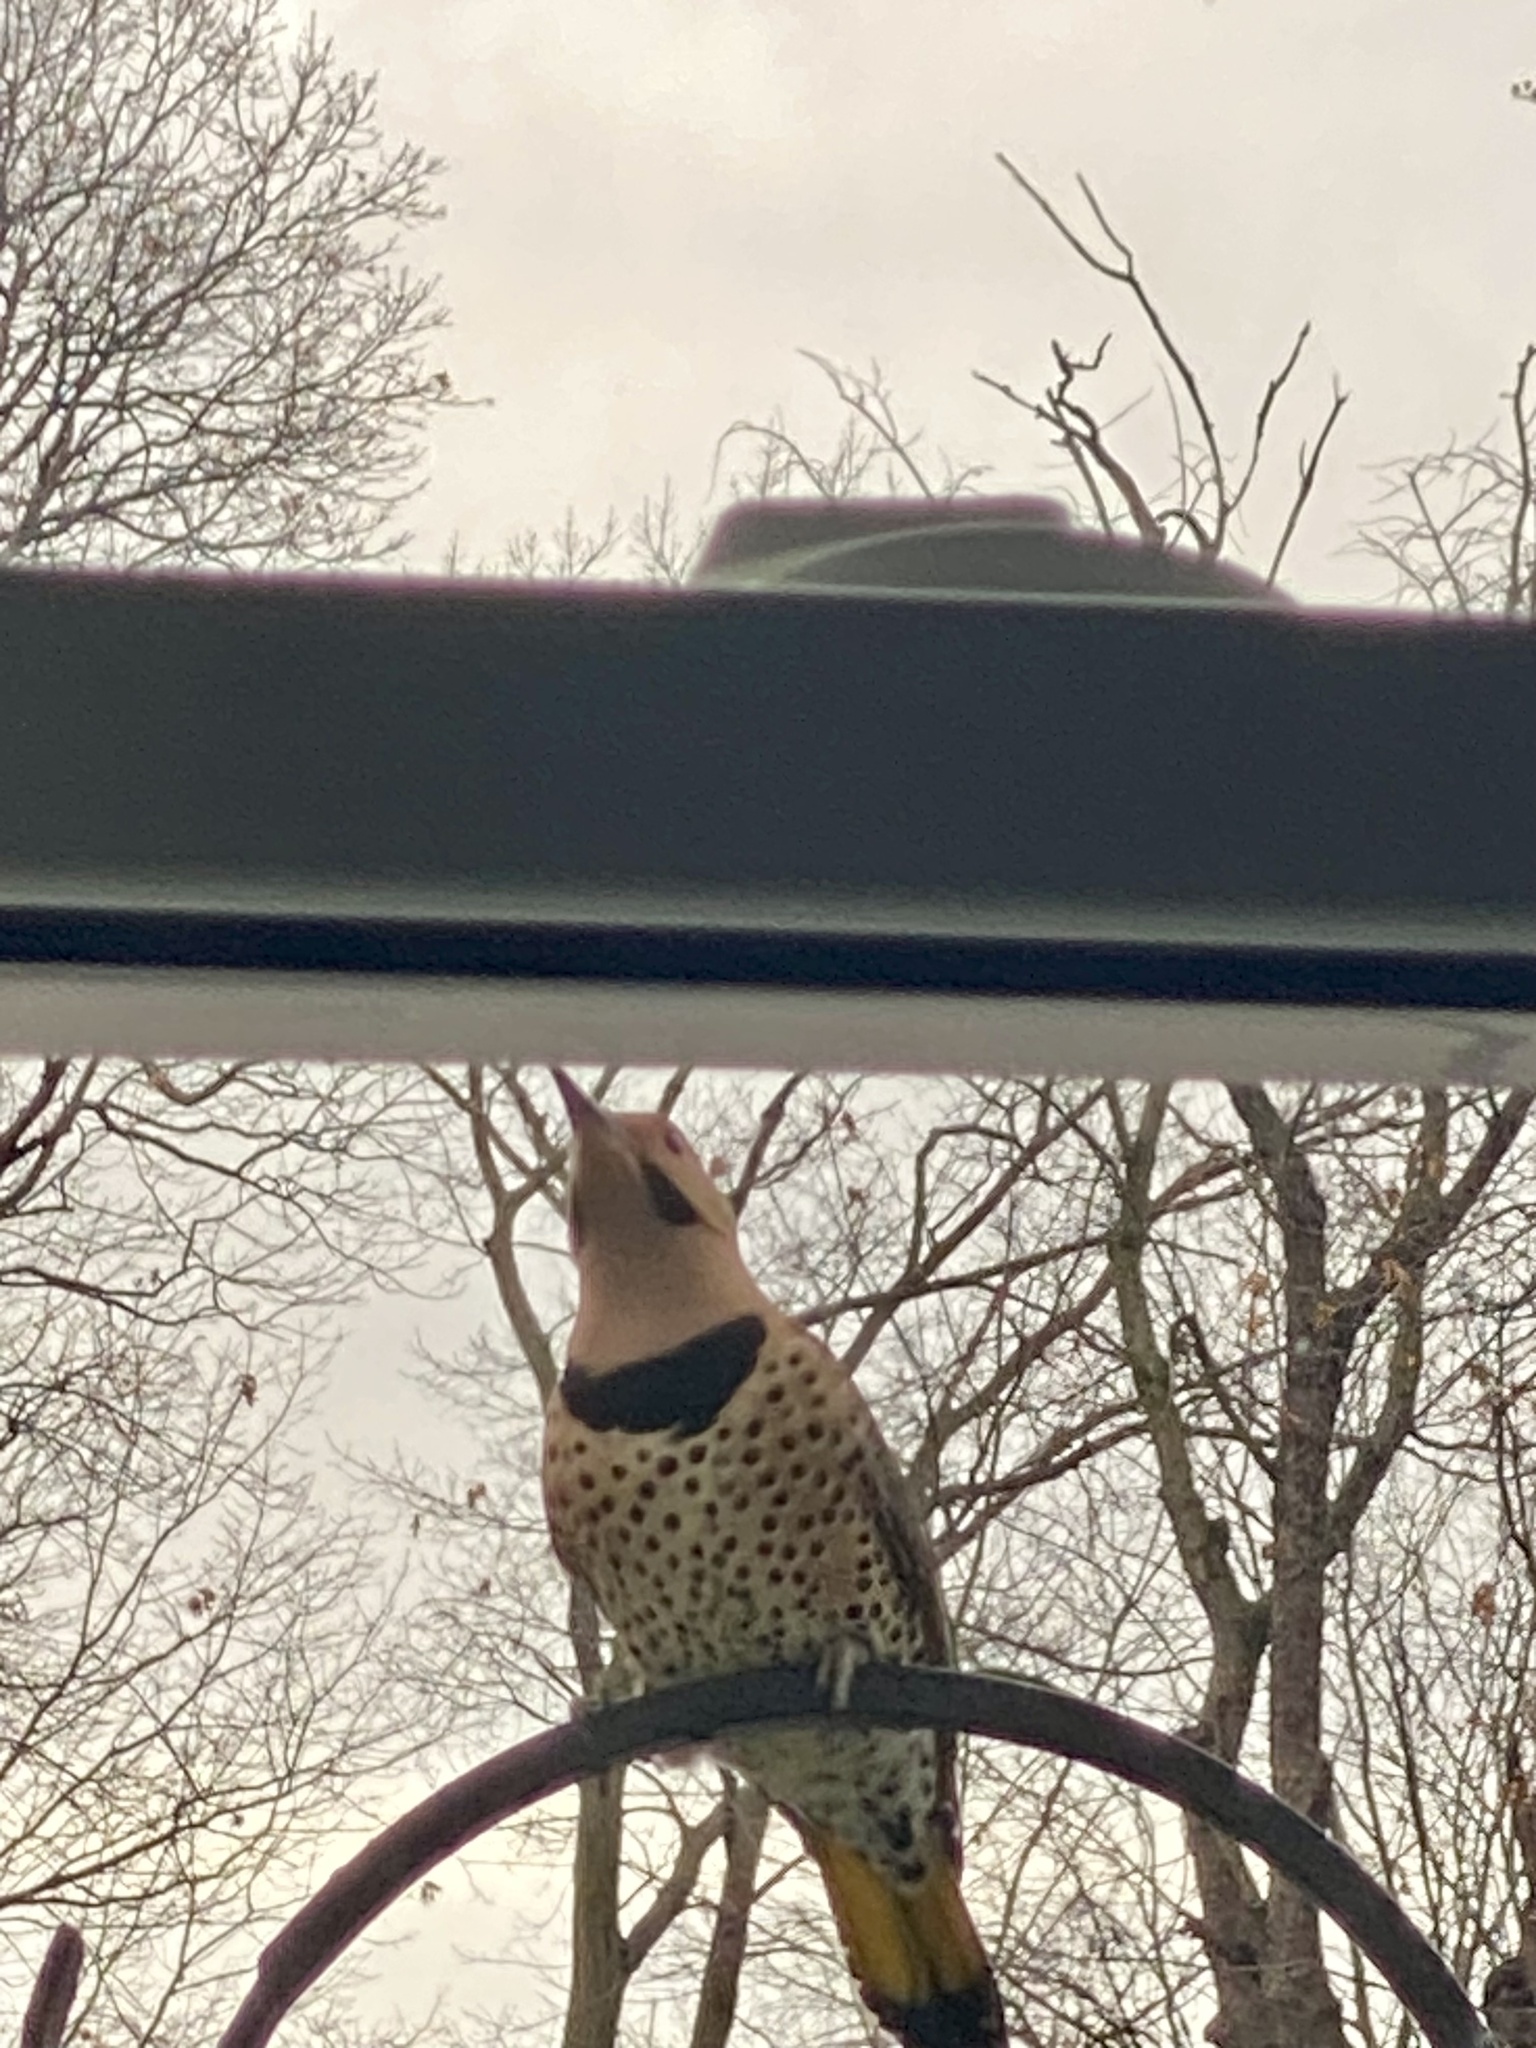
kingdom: Animalia
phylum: Chordata
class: Aves
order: Piciformes
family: Picidae
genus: Colaptes
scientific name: Colaptes auratus
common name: Northern flicker
